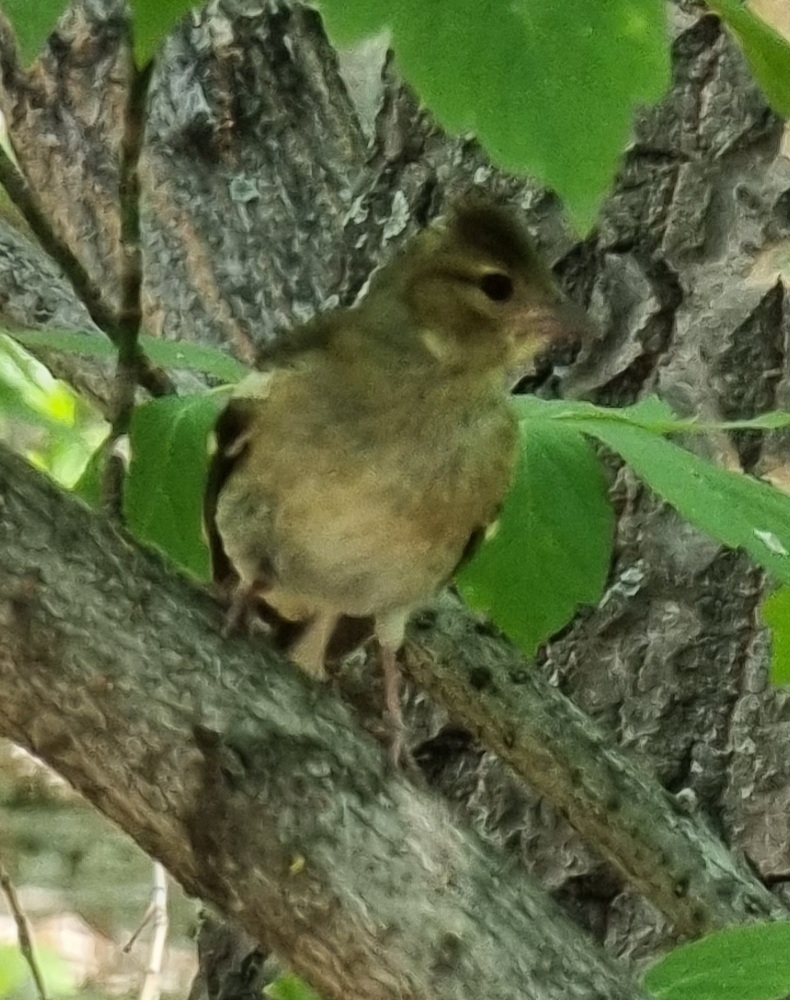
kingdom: Animalia
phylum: Chordata
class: Aves
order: Passeriformes
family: Fringillidae
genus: Fringilla
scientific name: Fringilla coelebs
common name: Common chaffinch
